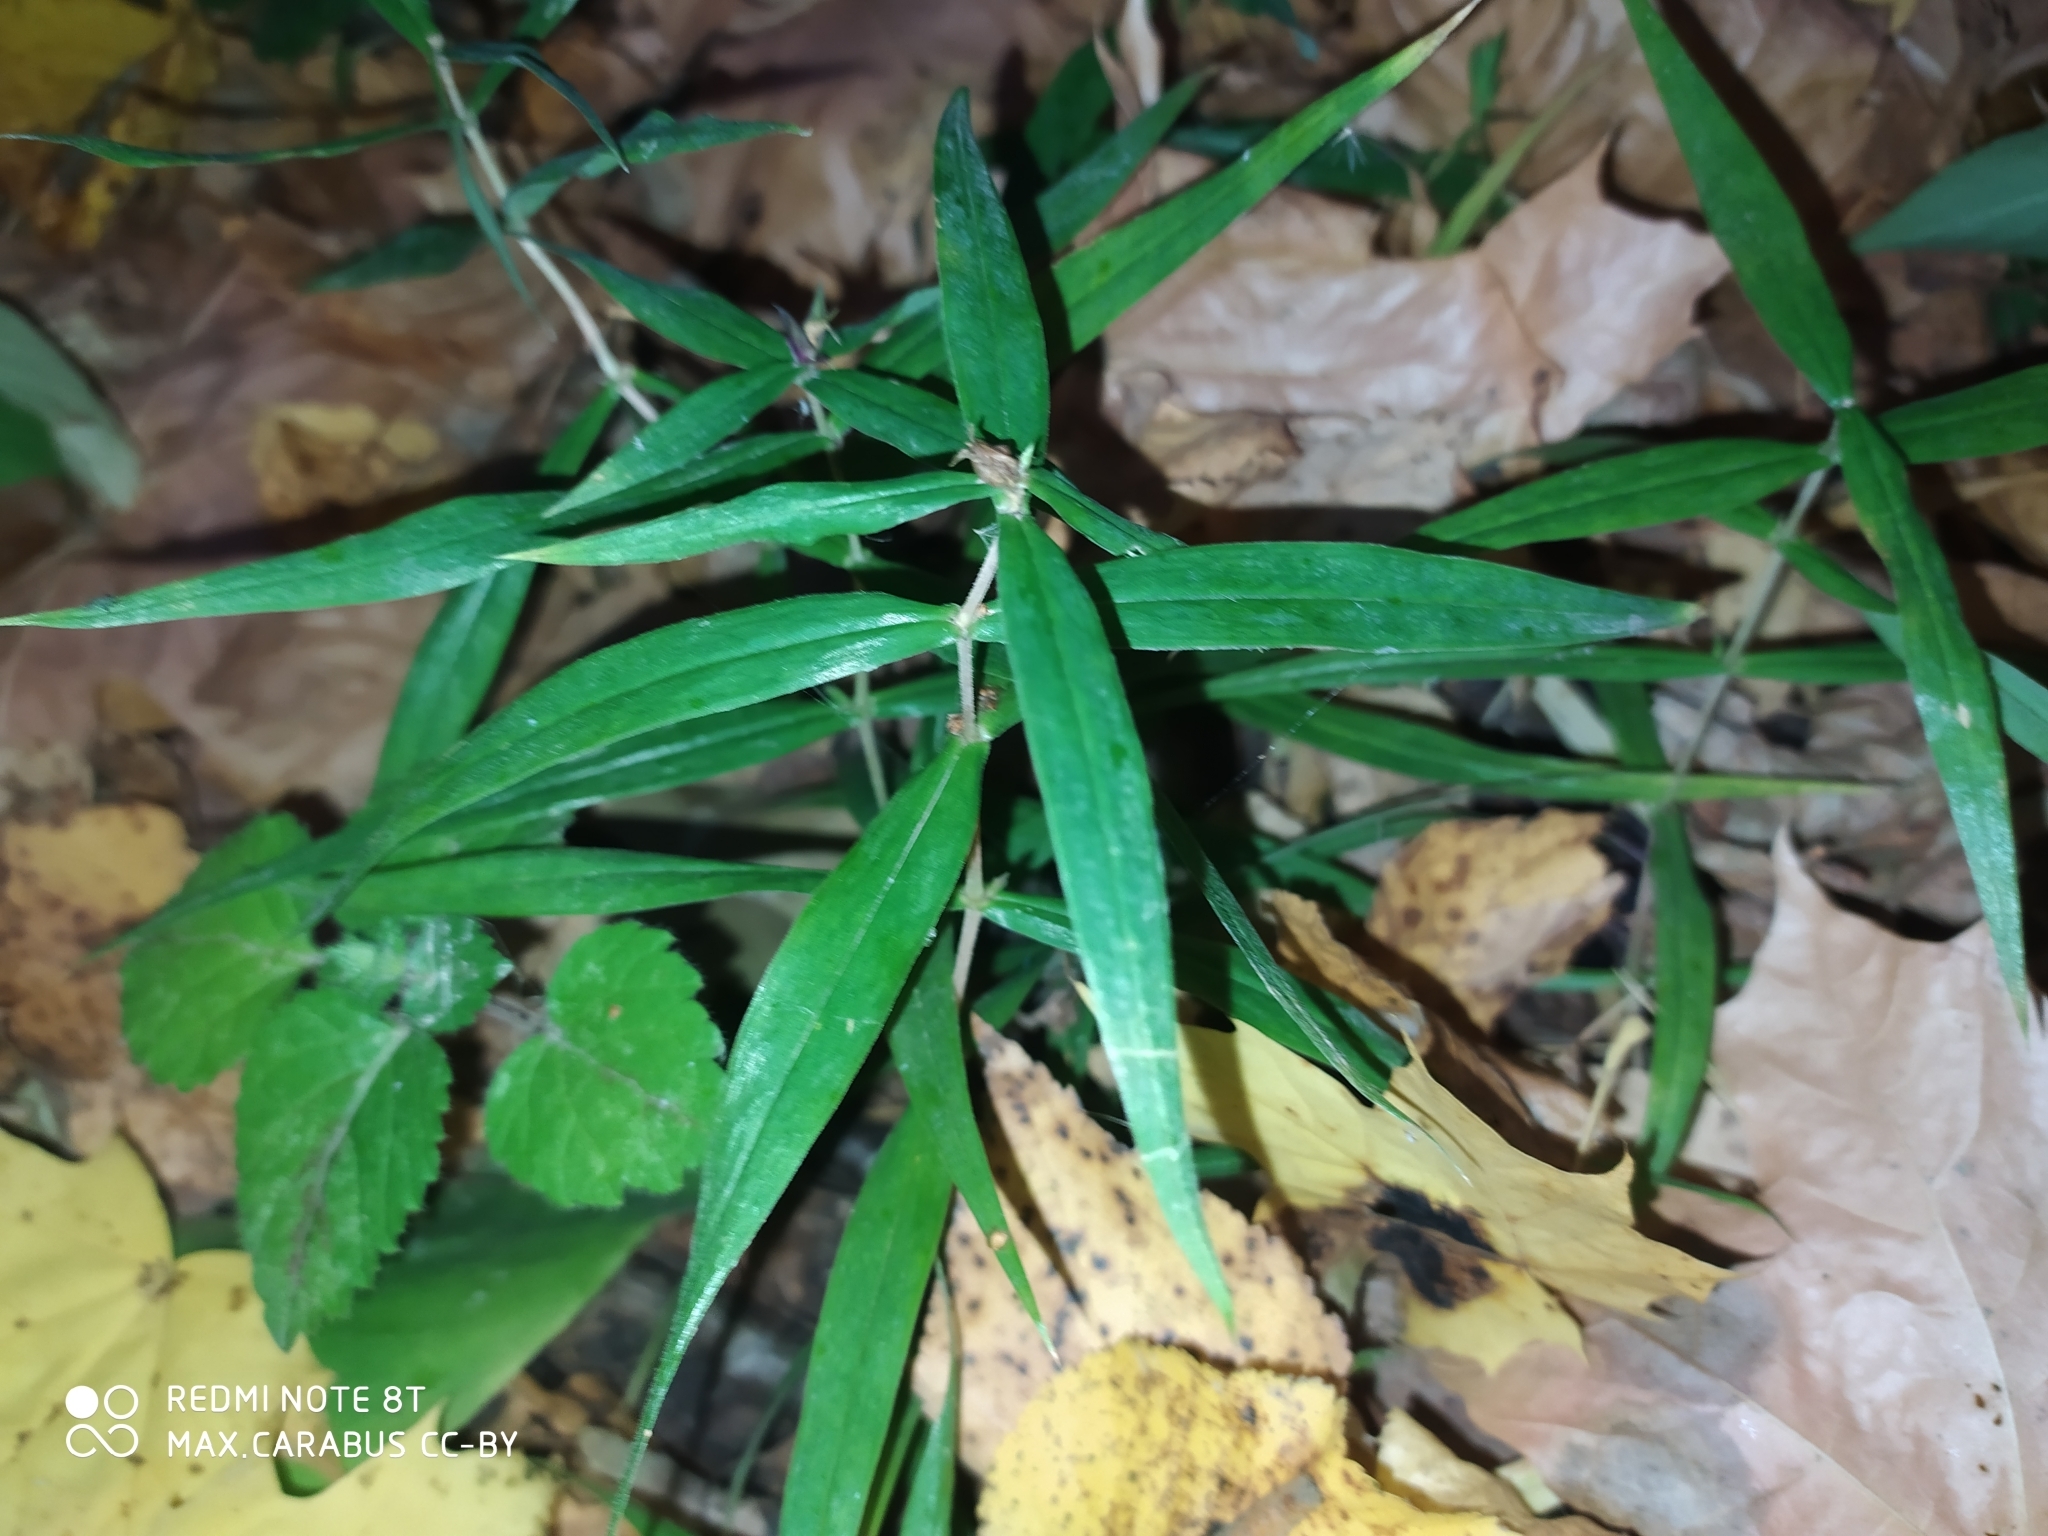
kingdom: Plantae
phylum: Tracheophyta
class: Magnoliopsida
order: Caryophyllales
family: Caryophyllaceae
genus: Rabelera
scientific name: Rabelera holostea
